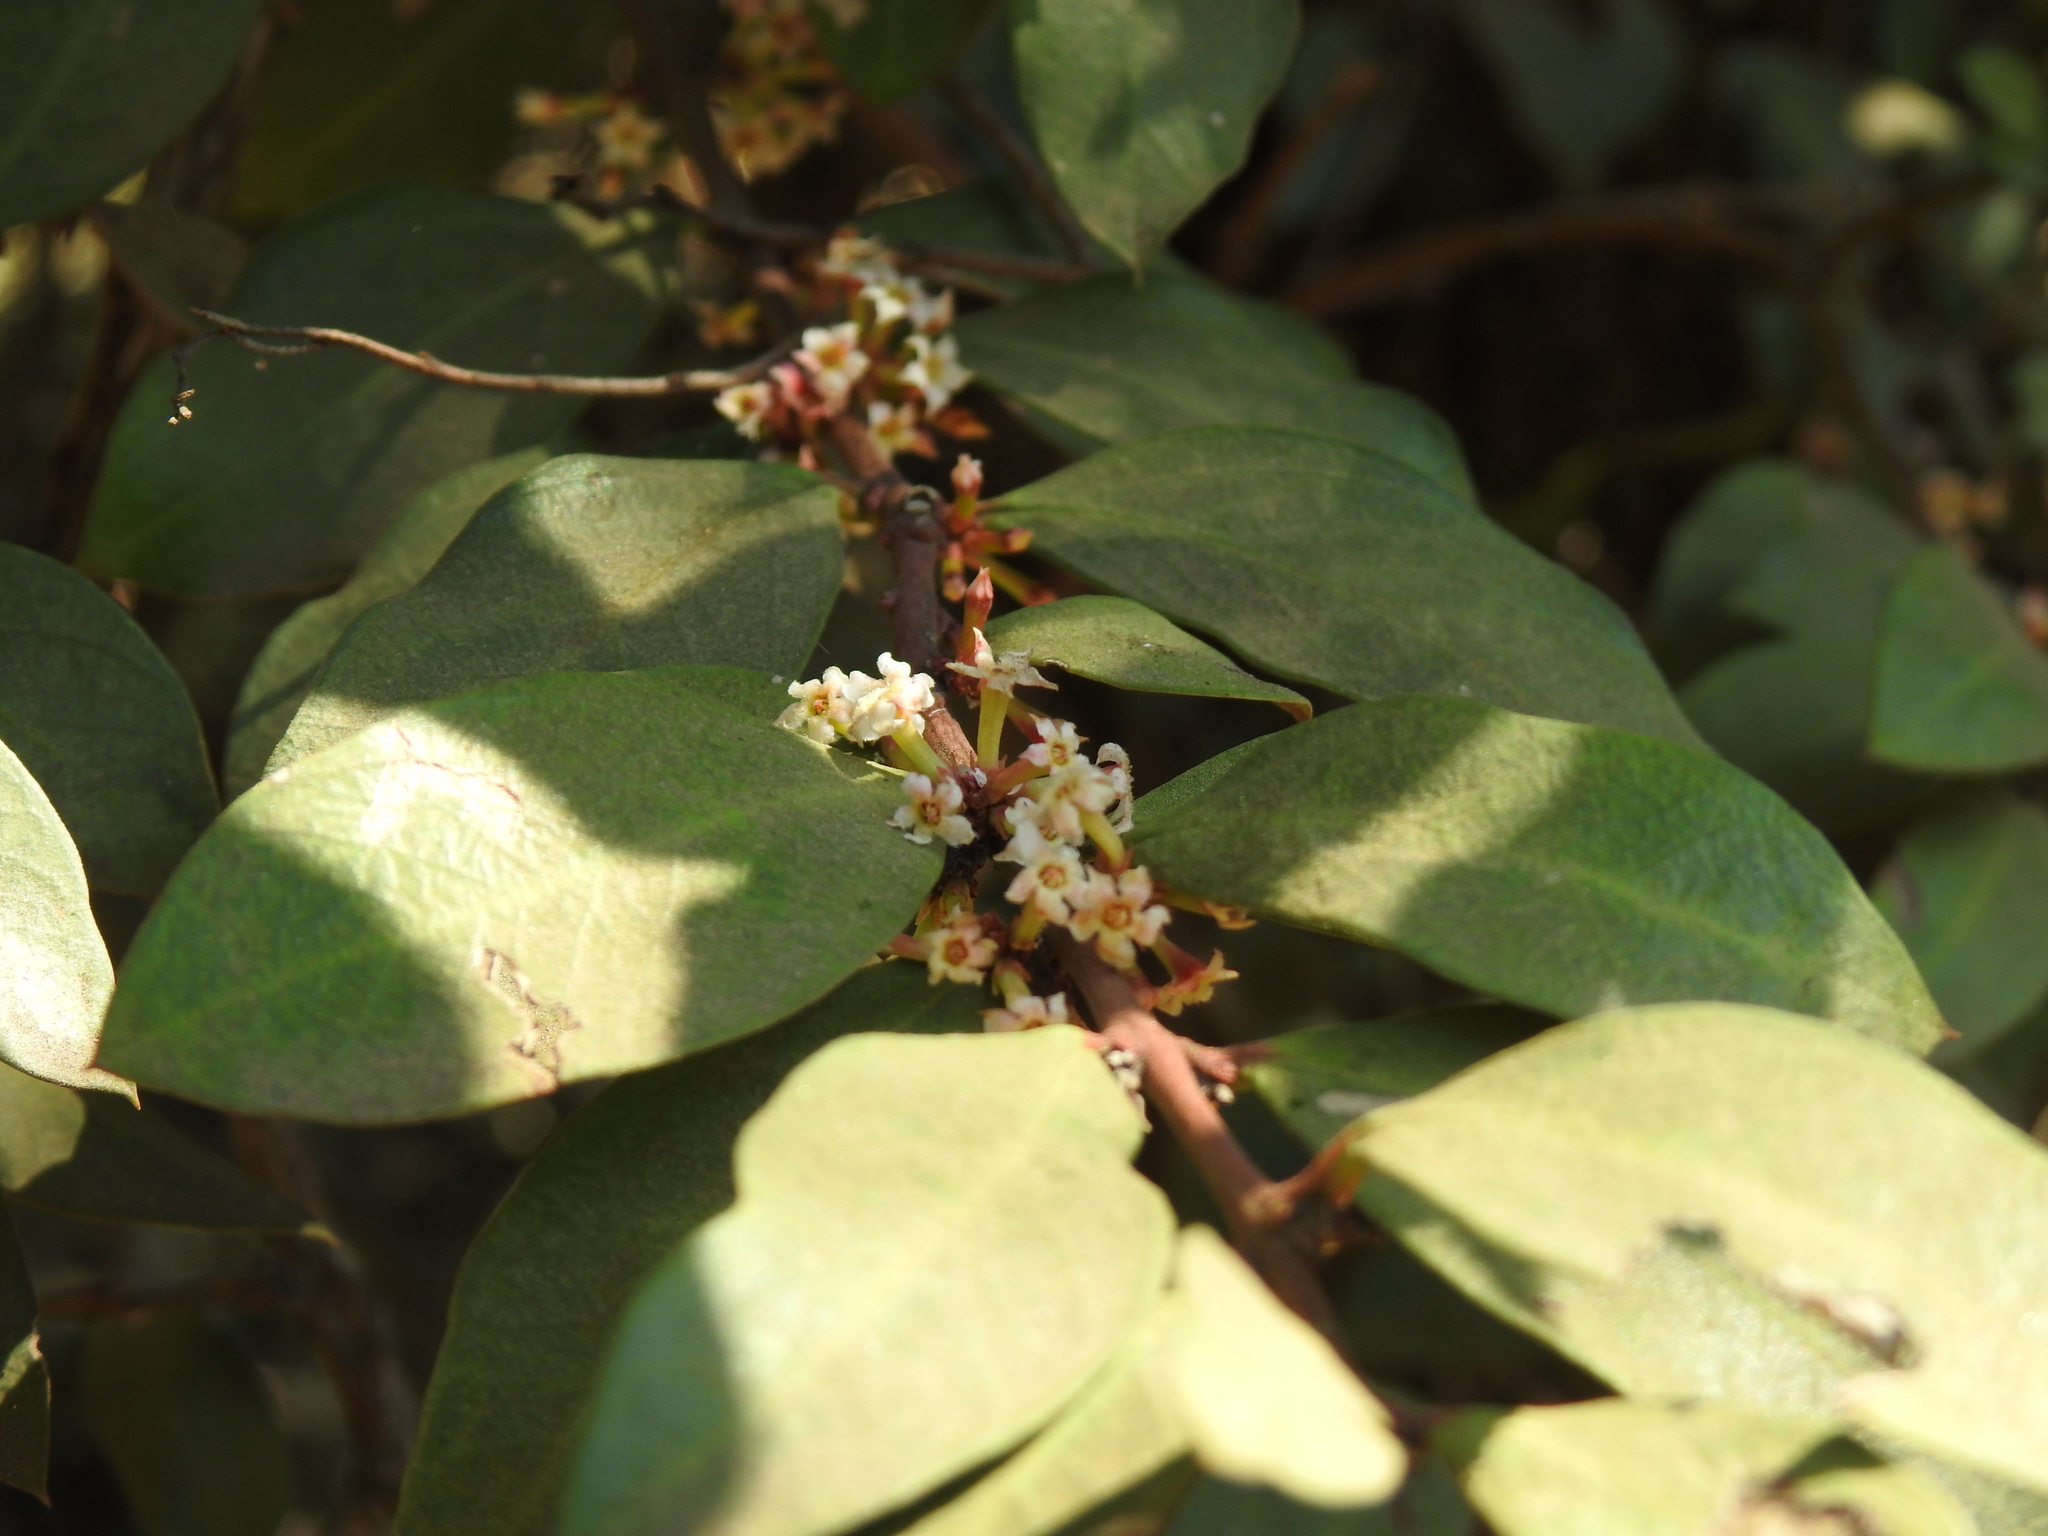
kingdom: Plantae
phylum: Tracheophyta
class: Magnoliopsida
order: Gentianales
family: Apocynaceae
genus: Acokanthera
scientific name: Acokanthera oppositifolia
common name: Bushman's-poison
